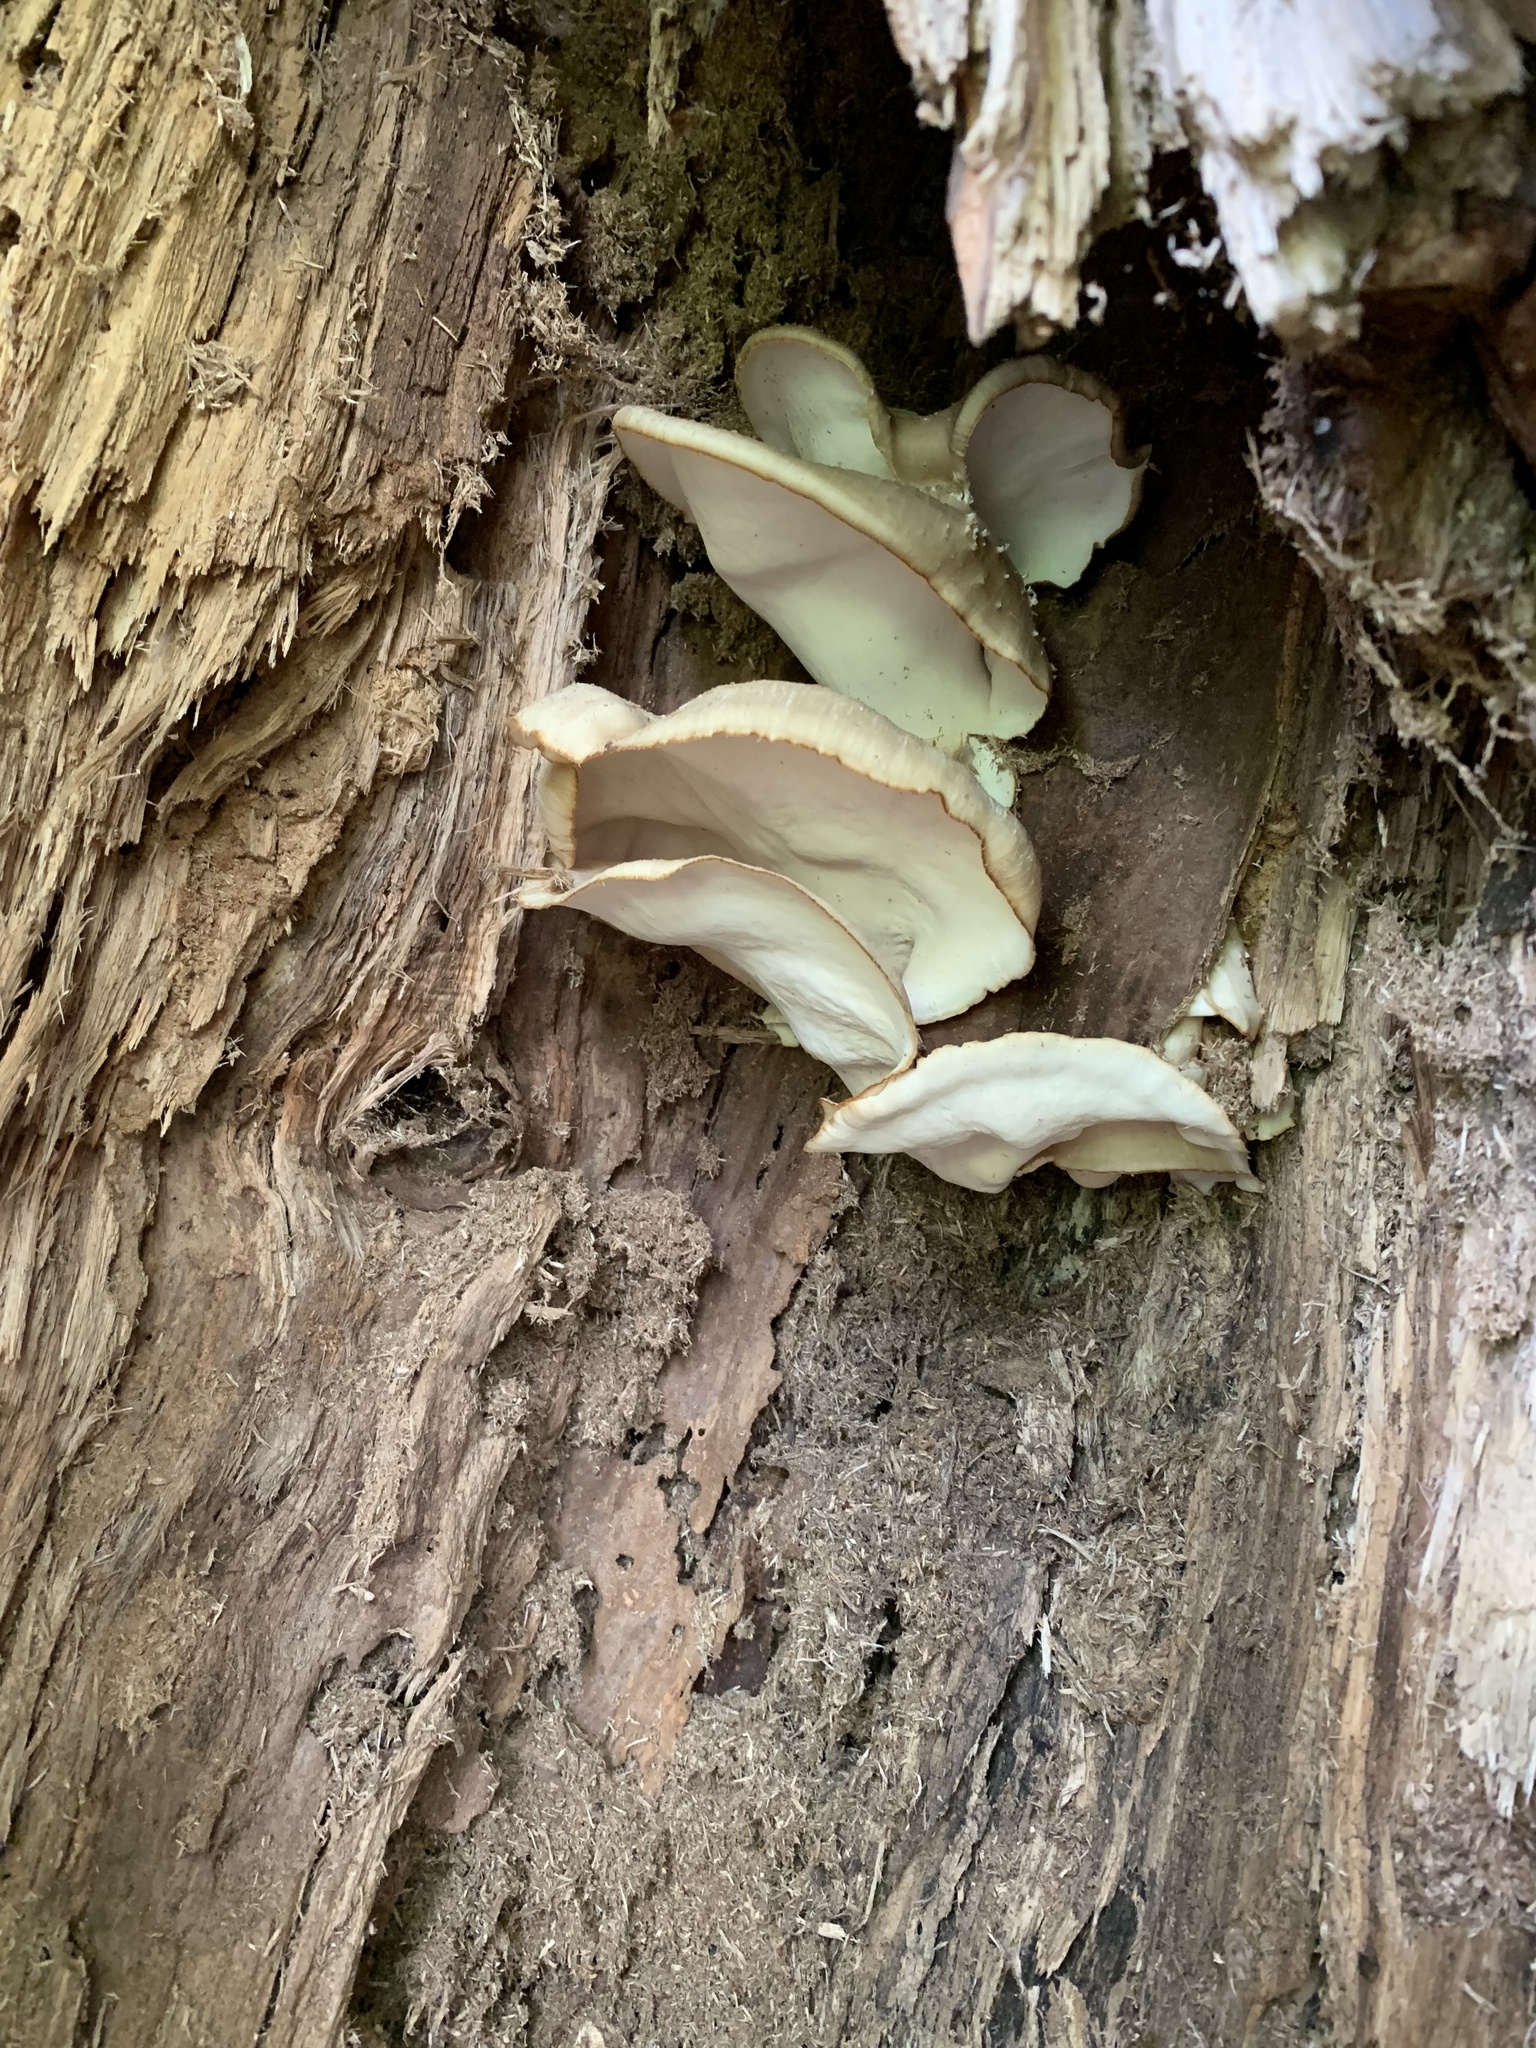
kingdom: Fungi
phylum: Basidiomycota
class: Agaricomycetes
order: Polyporales
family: Meruliaceae
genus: Climacodon
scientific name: Climacodon septentrionalis
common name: Northern tooth
